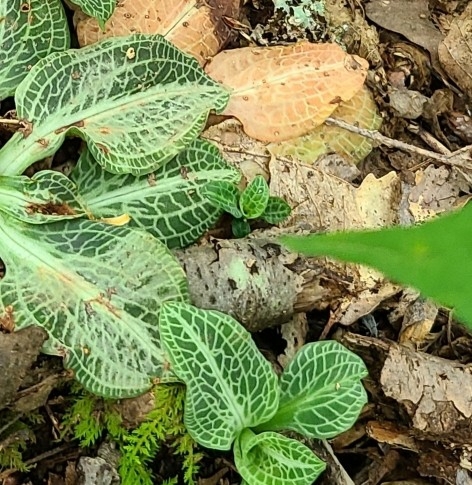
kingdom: Plantae
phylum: Tracheophyta
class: Liliopsida
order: Asparagales
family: Orchidaceae
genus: Goodyera
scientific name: Goodyera pubescens
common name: Downy rattlesnake-plantain
